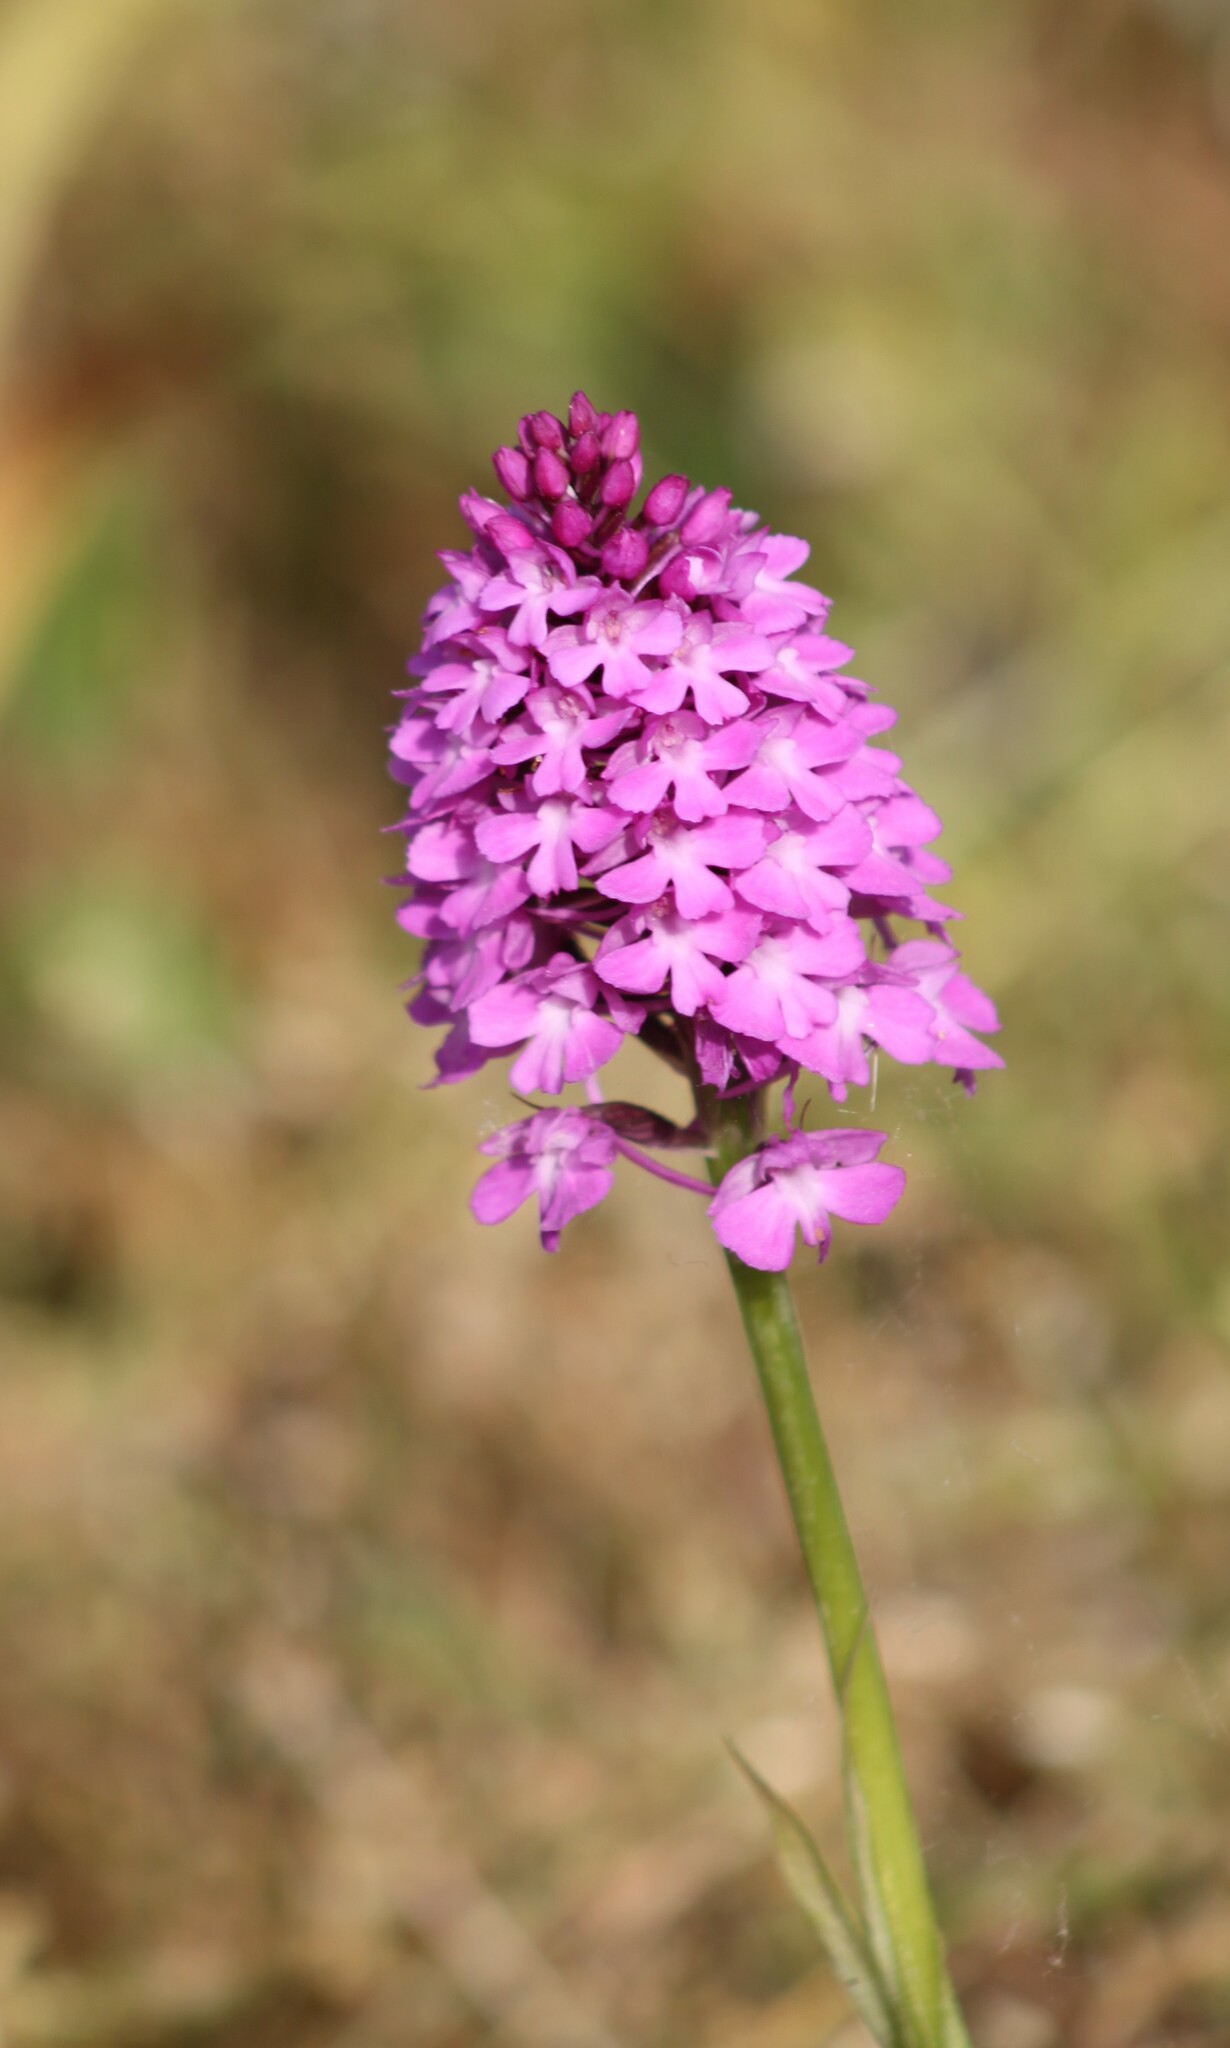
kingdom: Plantae
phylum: Tracheophyta
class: Liliopsida
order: Asparagales
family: Orchidaceae
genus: Anacamptis
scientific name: Anacamptis pyramidalis
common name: Pyramidal orchid
